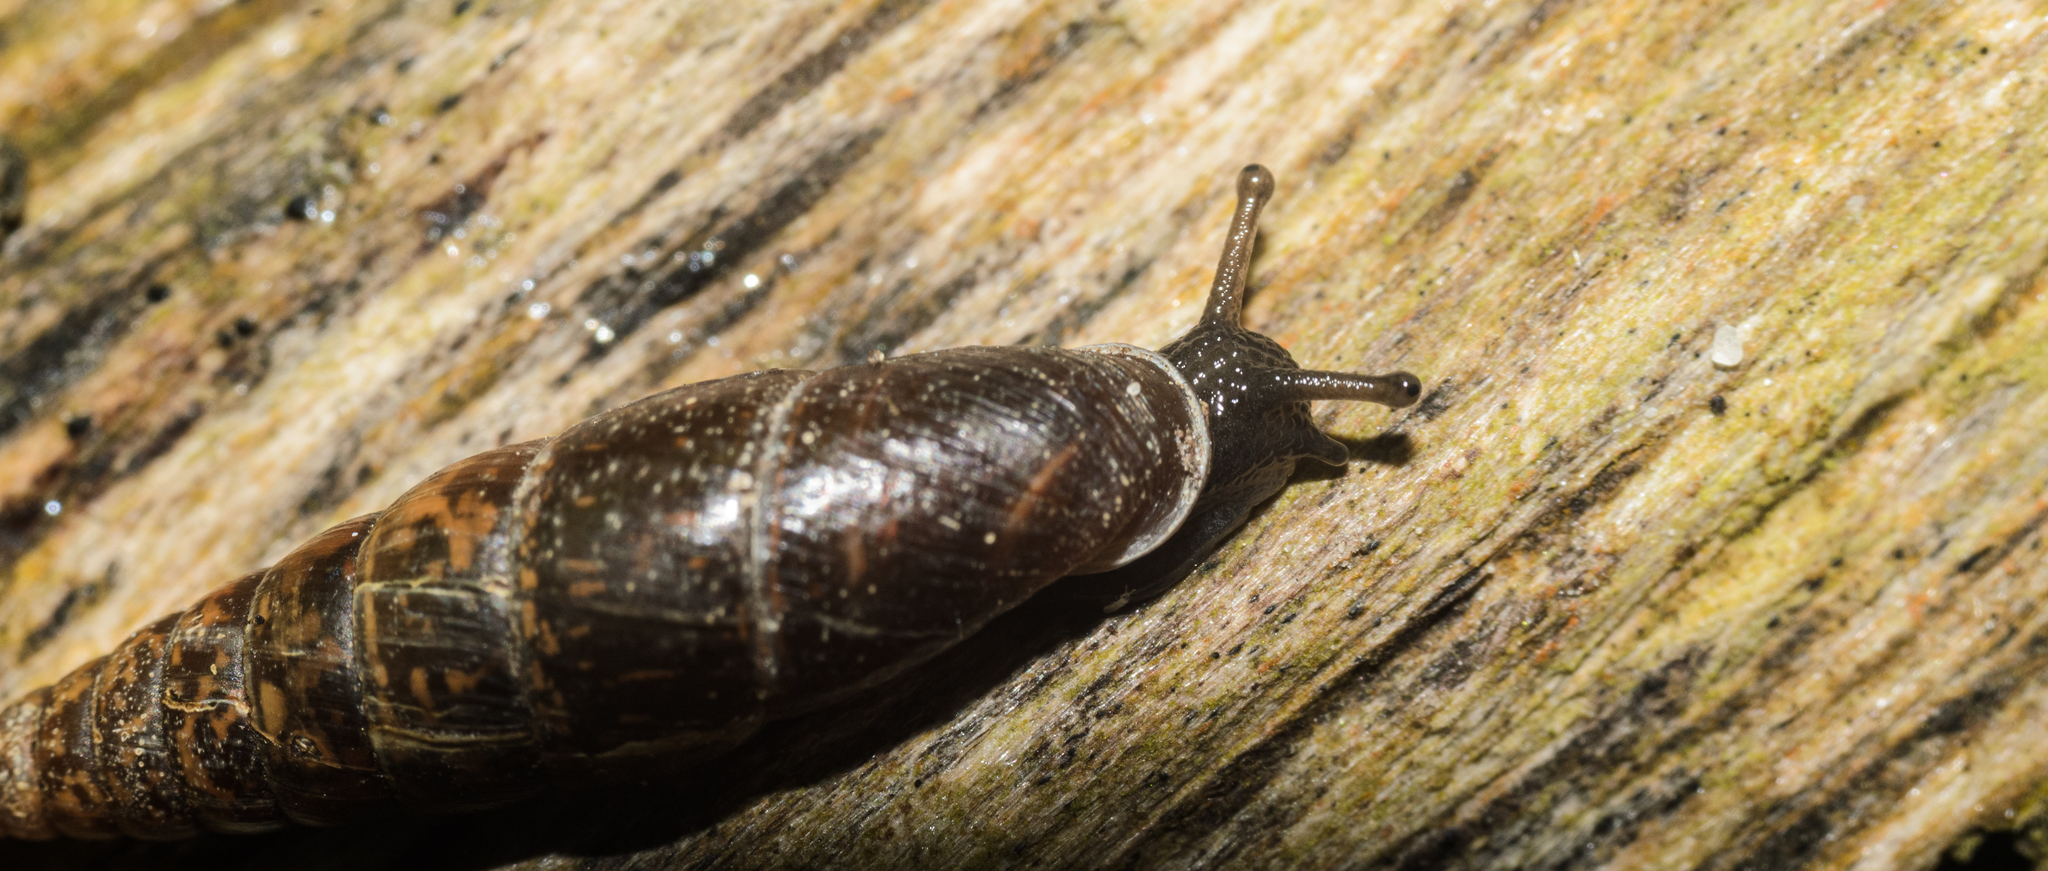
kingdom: Animalia
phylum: Mollusca
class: Gastropoda
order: Stylommatophora
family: Clausiliidae
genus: Cochlodina
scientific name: Cochlodina laminata
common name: Plaited door snail
